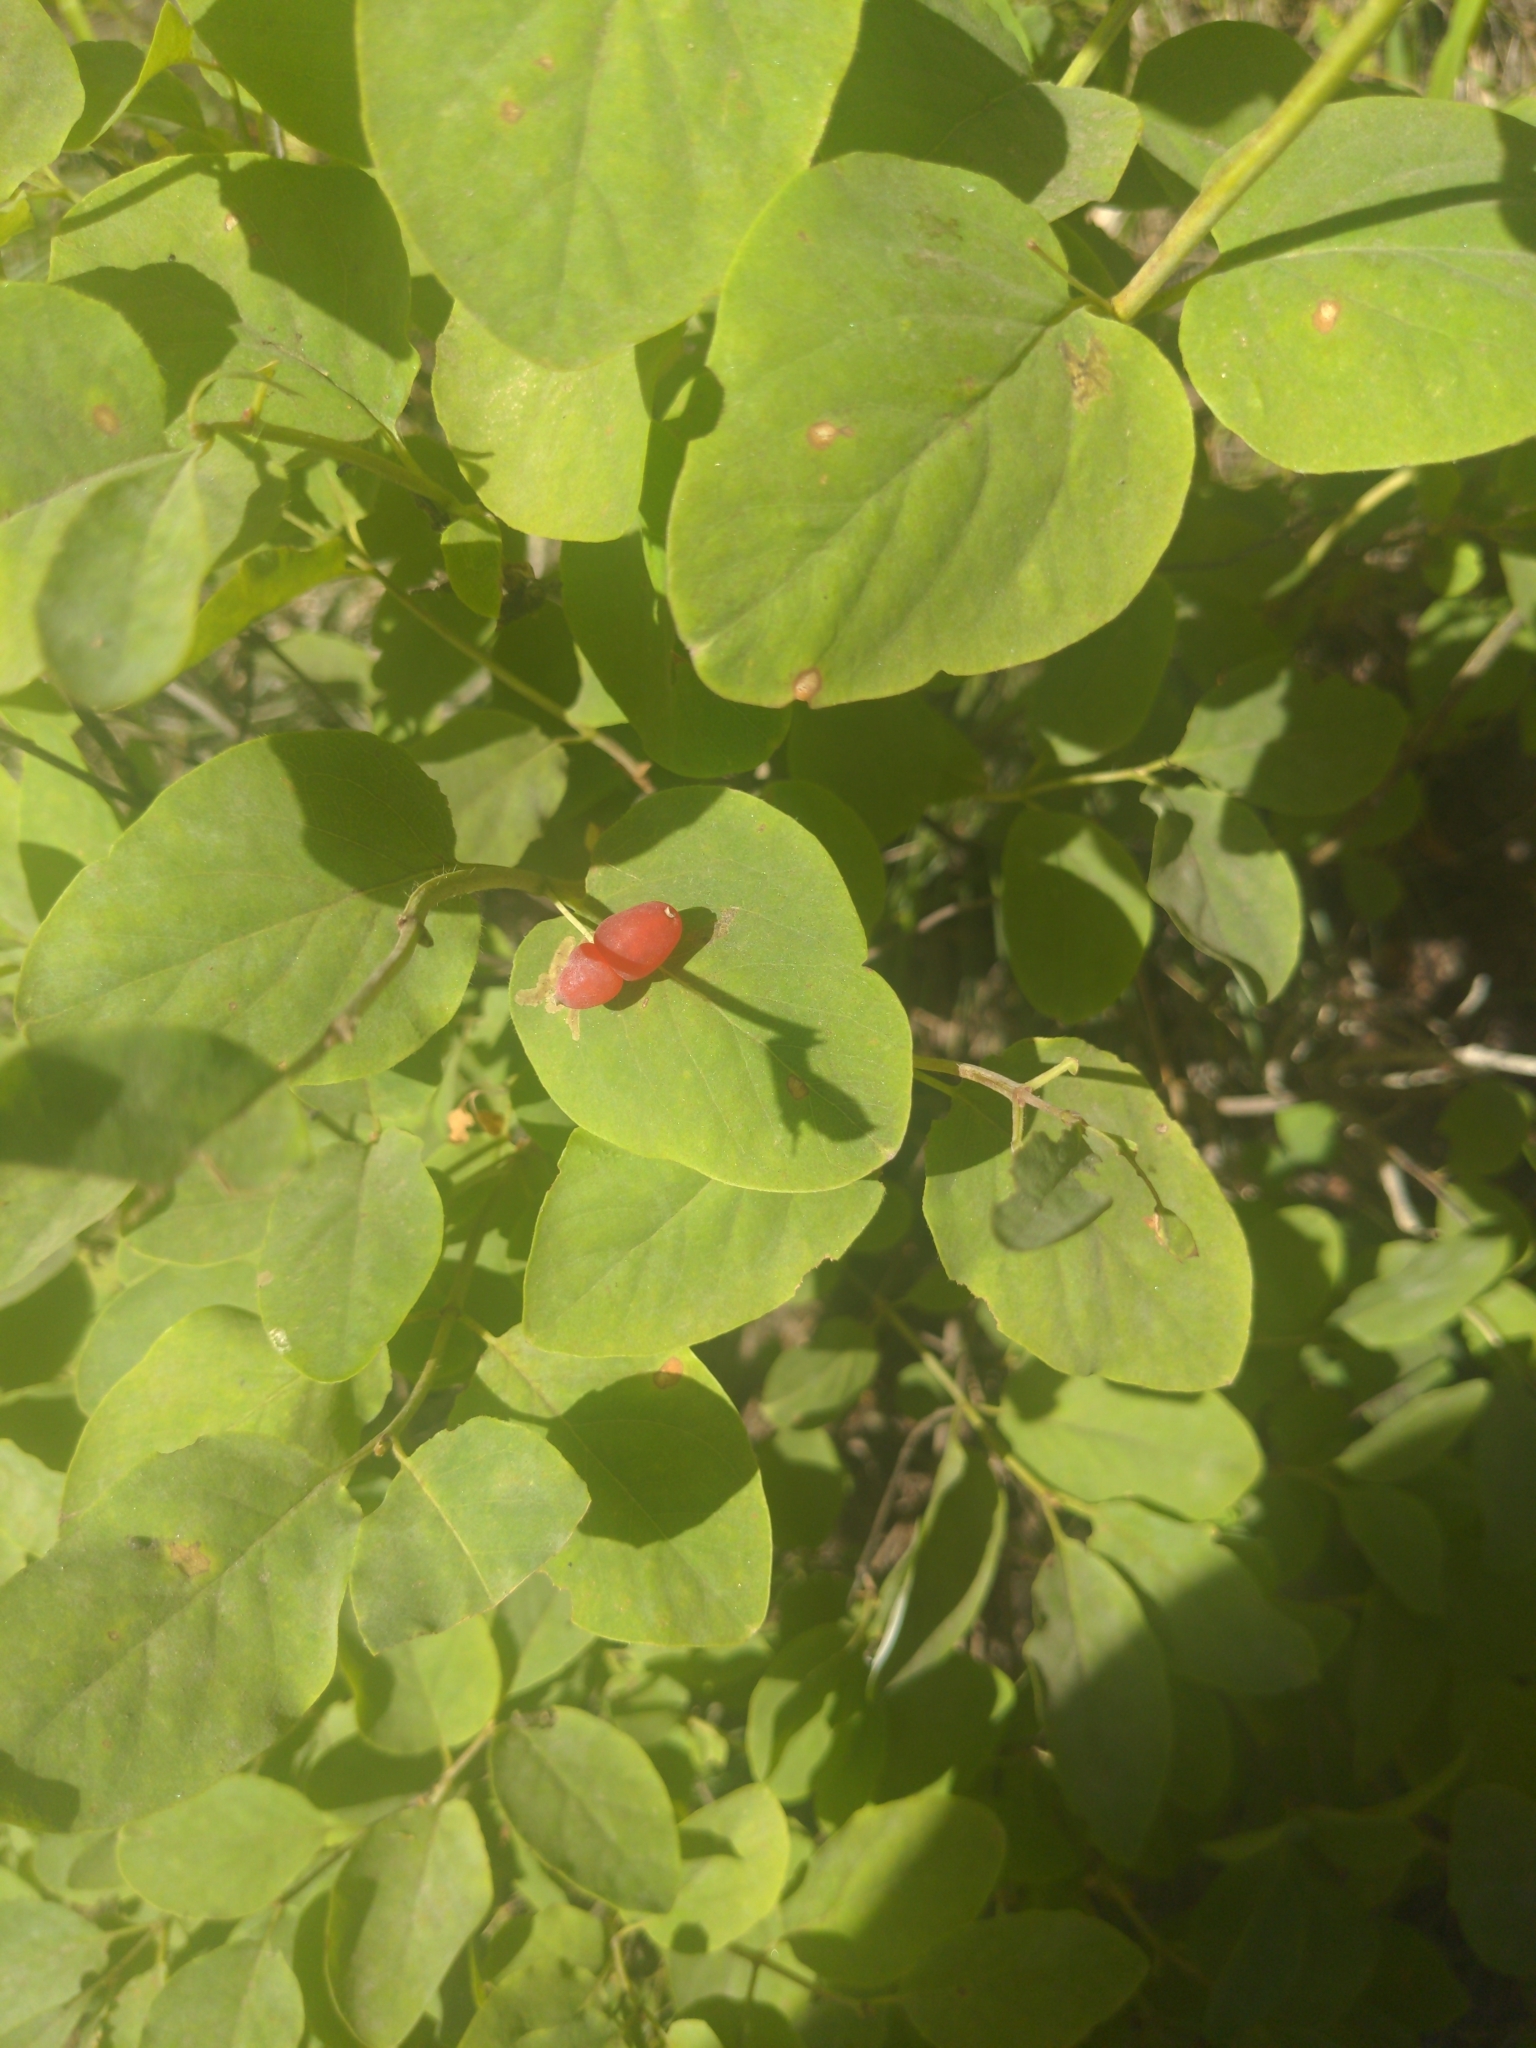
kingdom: Plantae
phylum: Tracheophyta
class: Magnoliopsida
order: Dipsacales
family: Caprifoliaceae
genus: Lonicera
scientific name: Lonicera utahensis
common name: Utah honeysuckle
